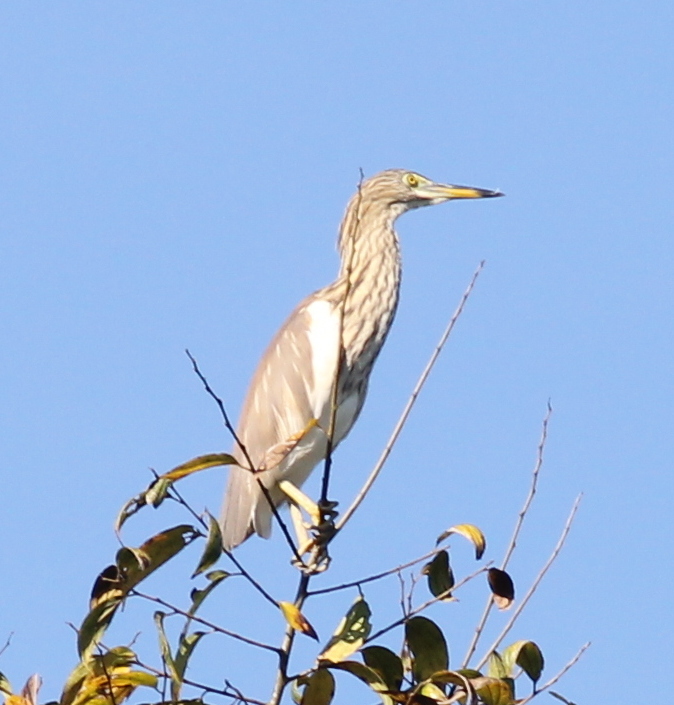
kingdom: Animalia
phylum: Chordata
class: Aves
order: Pelecaniformes
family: Ardeidae
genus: Ardeola
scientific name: Ardeola
